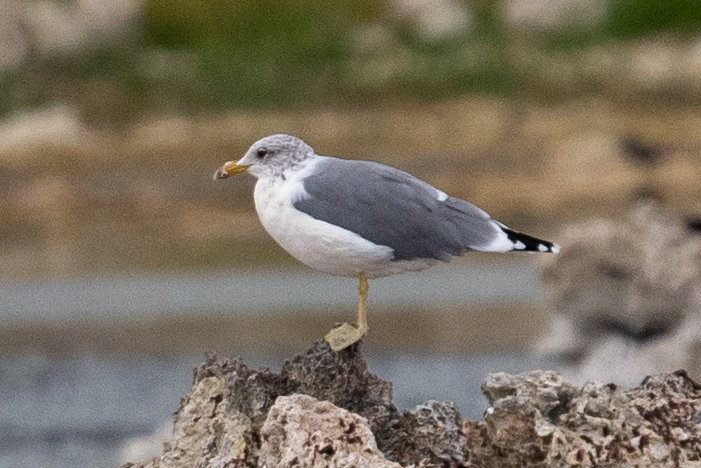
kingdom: Animalia
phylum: Chordata
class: Aves
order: Charadriiformes
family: Laridae
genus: Larus
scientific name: Larus californicus
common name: California gull
